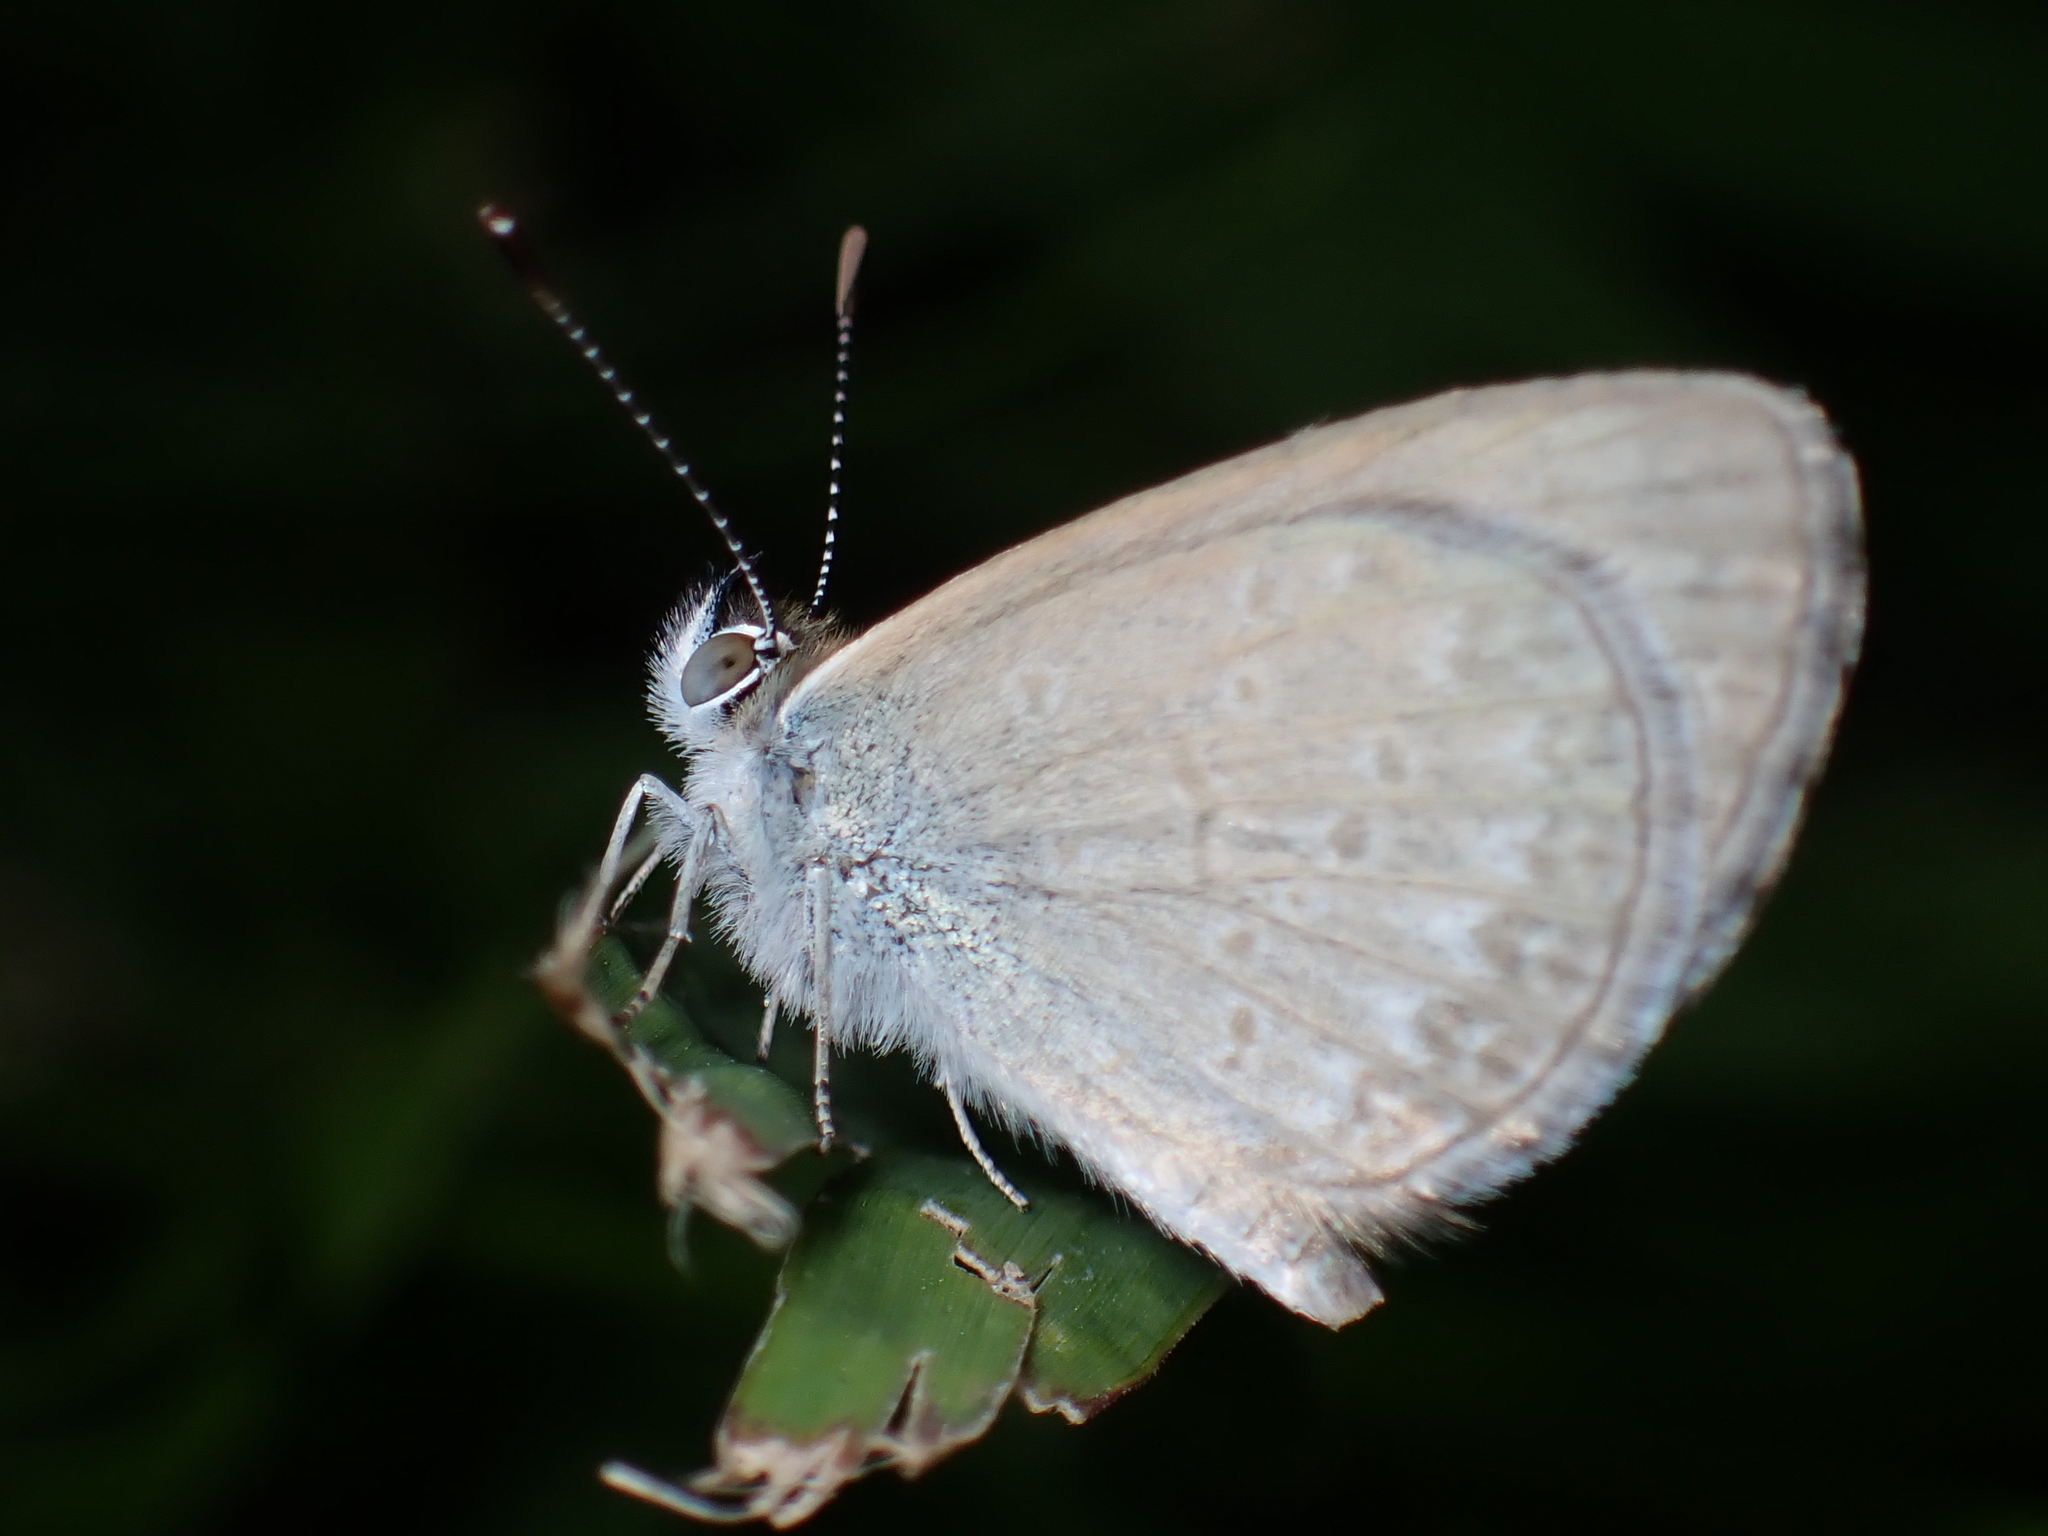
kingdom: Animalia
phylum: Arthropoda
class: Insecta
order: Lepidoptera
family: Lycaenidae
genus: Zizina
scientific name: Zizina otis
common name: Lesser grass blue
